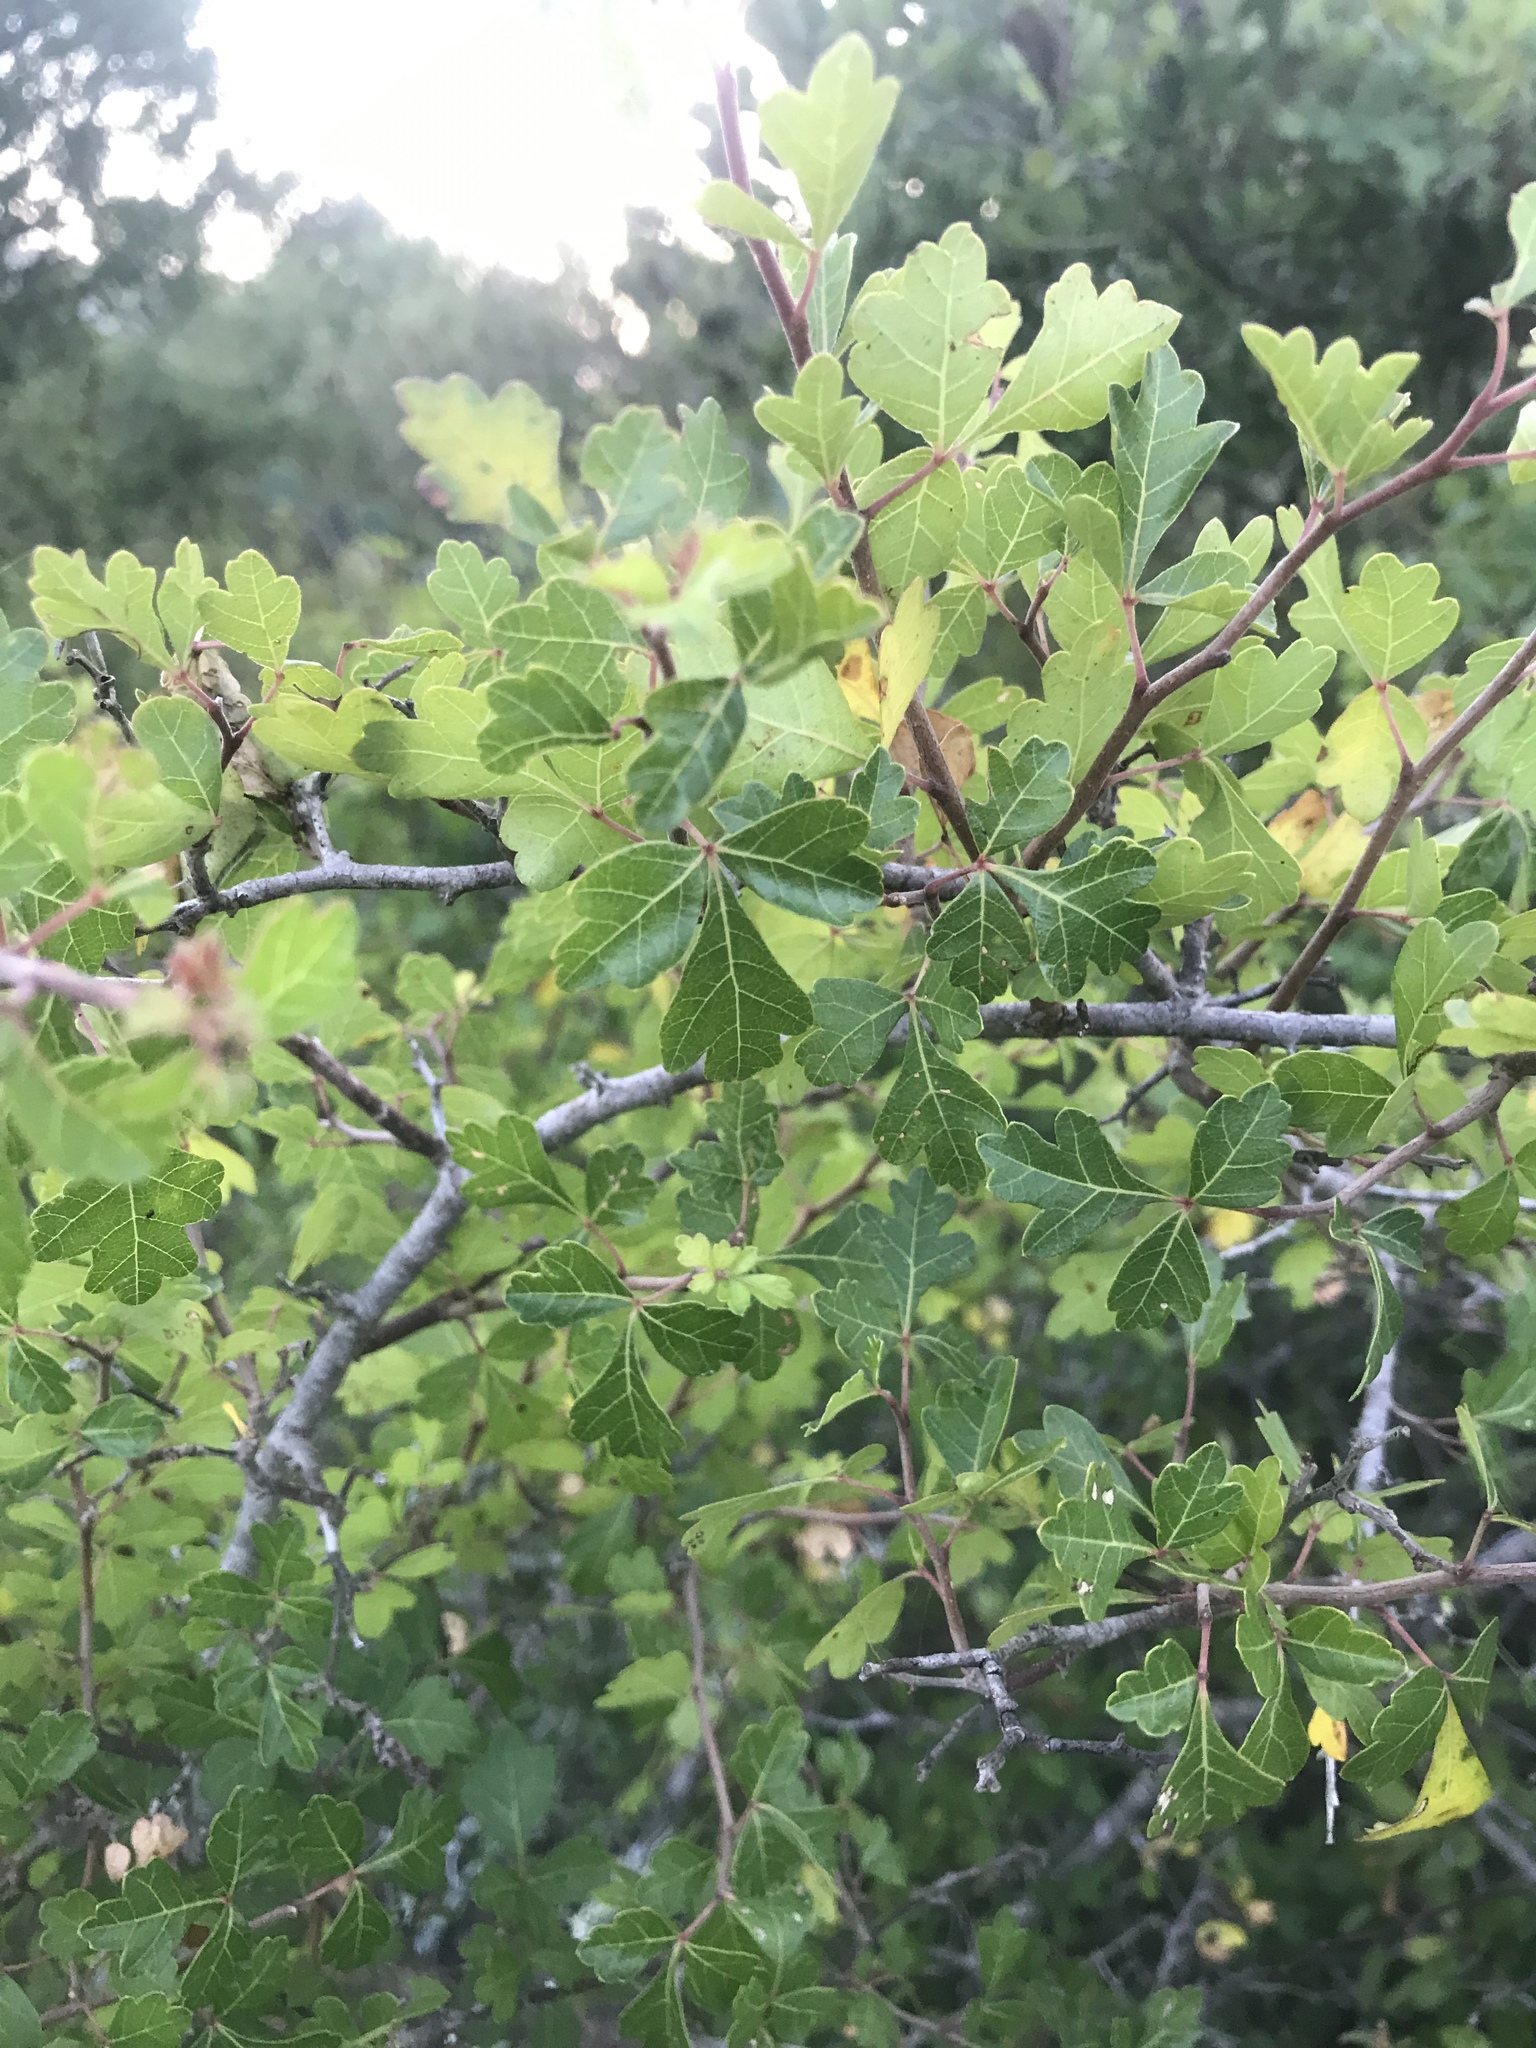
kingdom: Plantae
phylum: Tracheophyta
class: Magnoliopsida
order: Sapindales
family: Anacardiaceae
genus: Rhus
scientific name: Rhus aromatica
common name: Aromatic sumac
